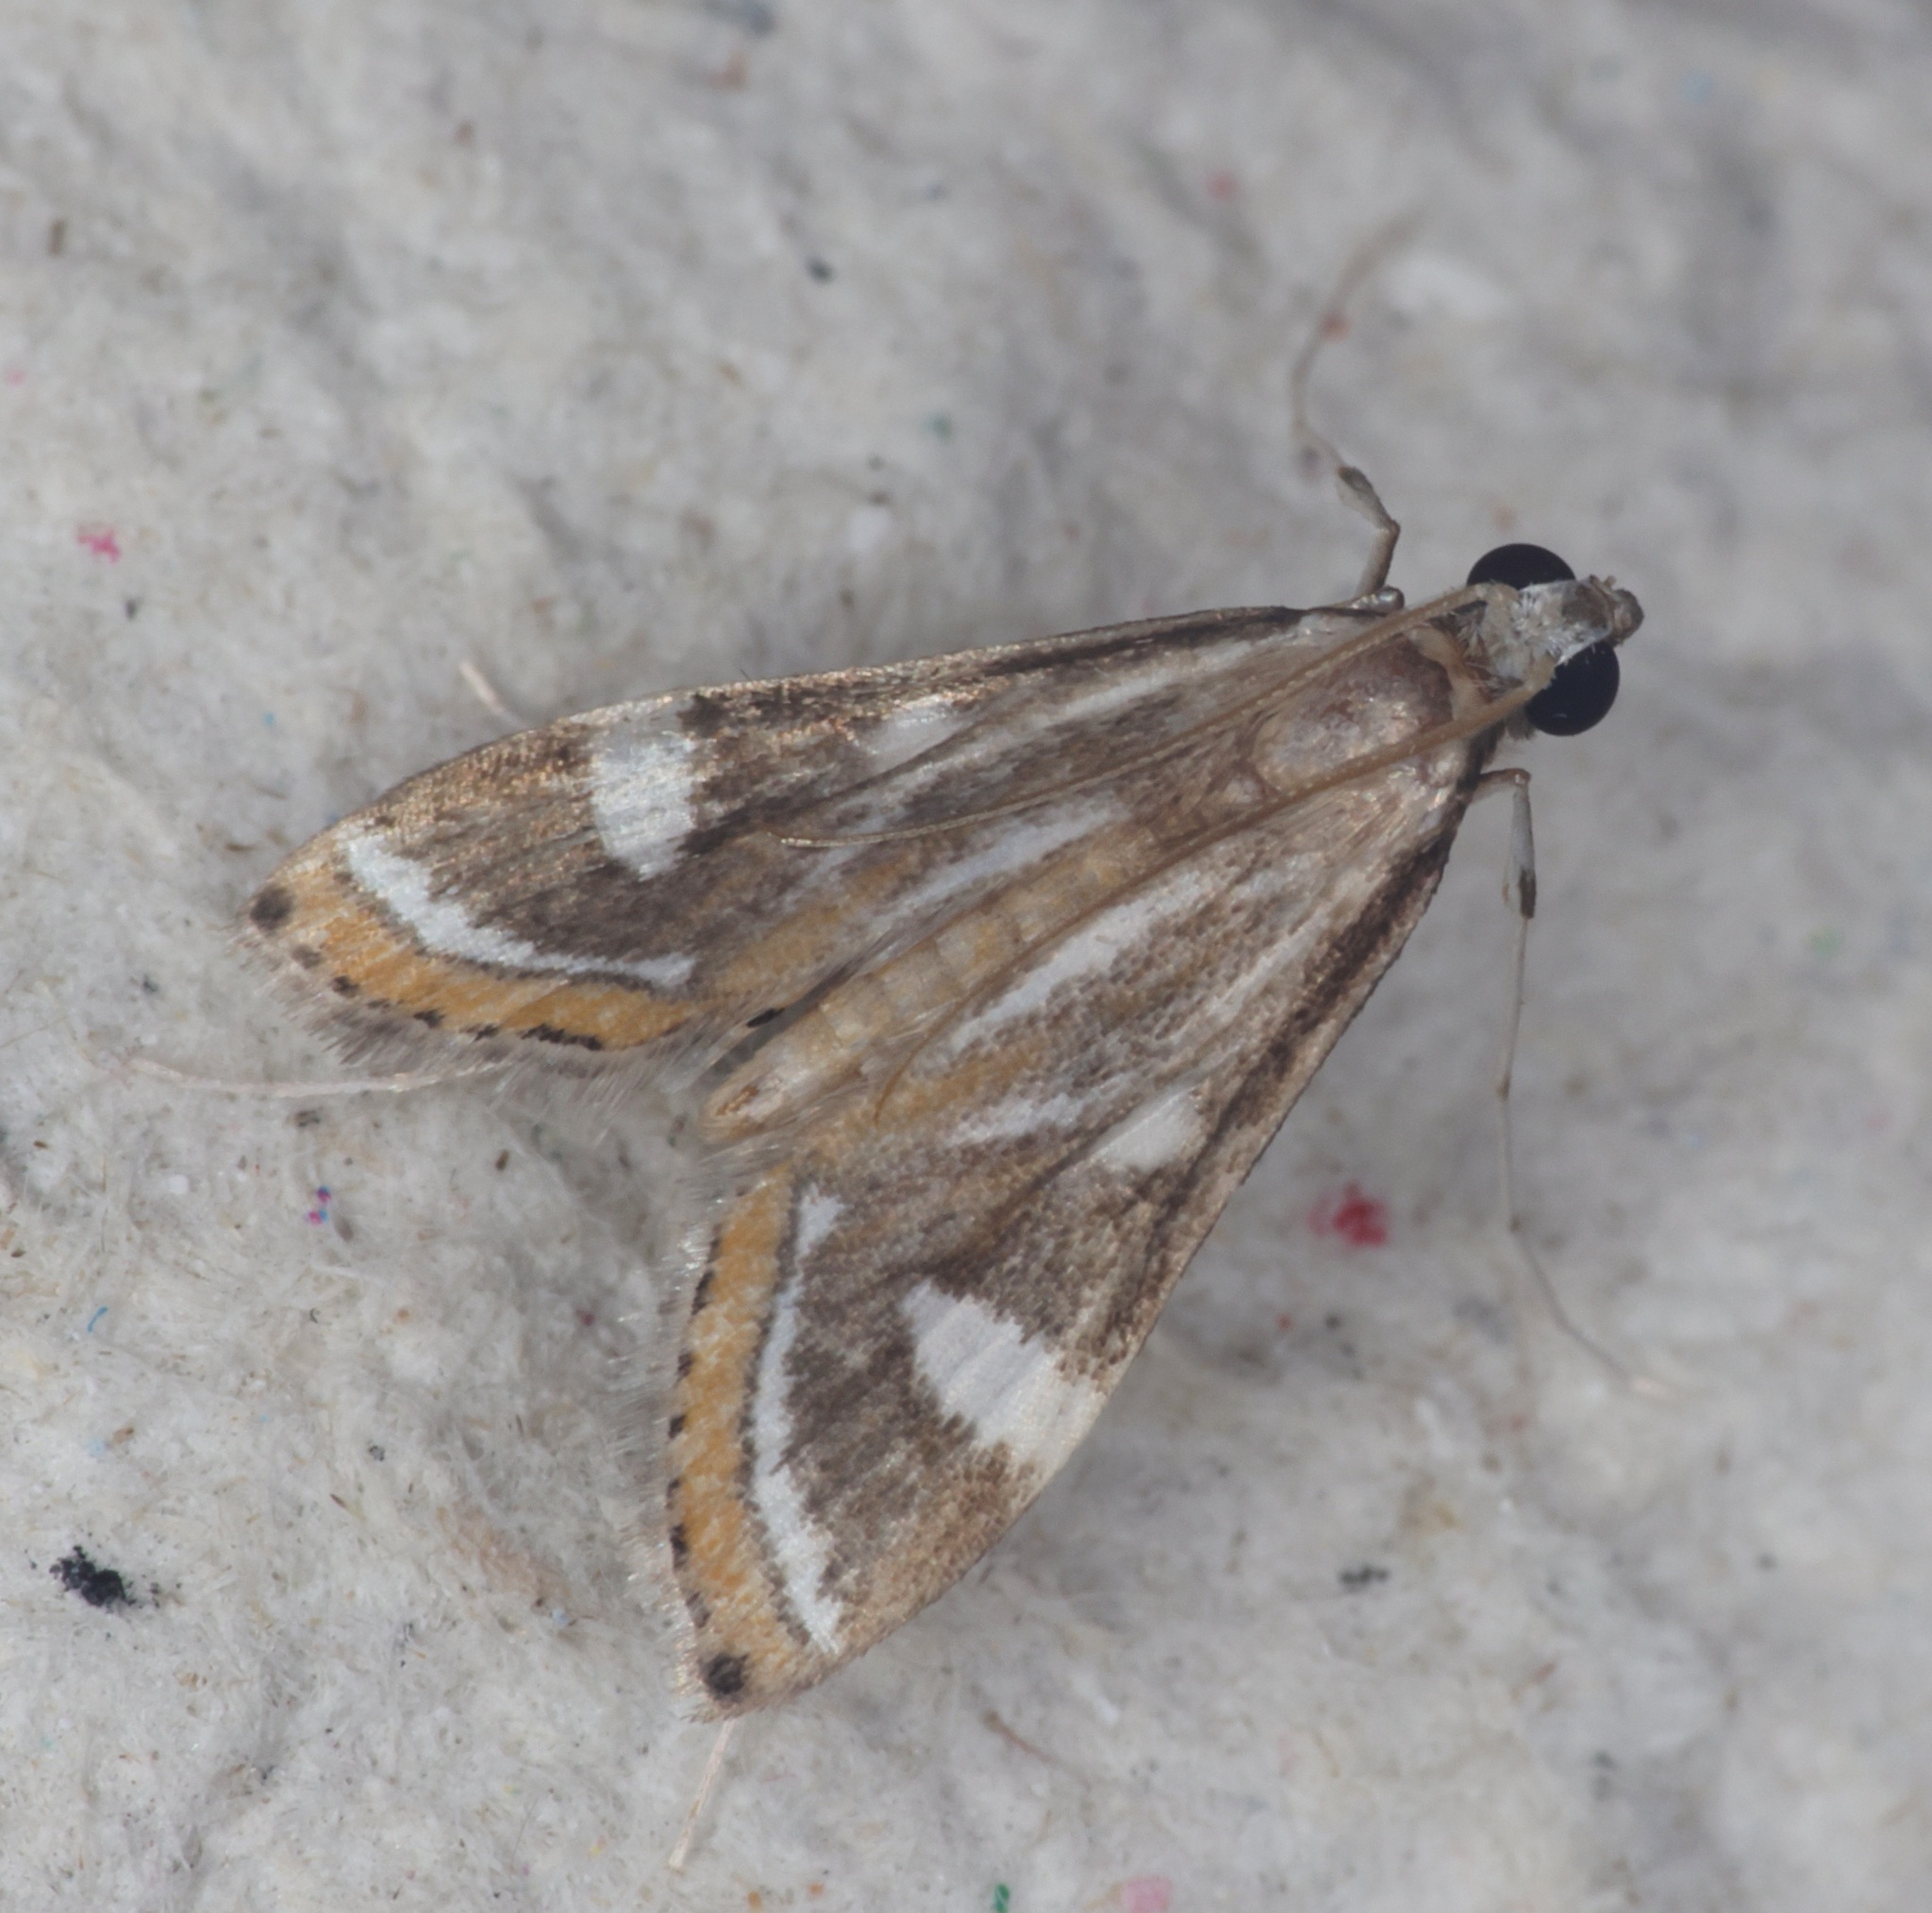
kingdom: Animalia
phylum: Arthropoda
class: Insecta
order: Lepidoptera
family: Crambidae
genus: Strepsinoma
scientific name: Strepsinoma croesusalis
